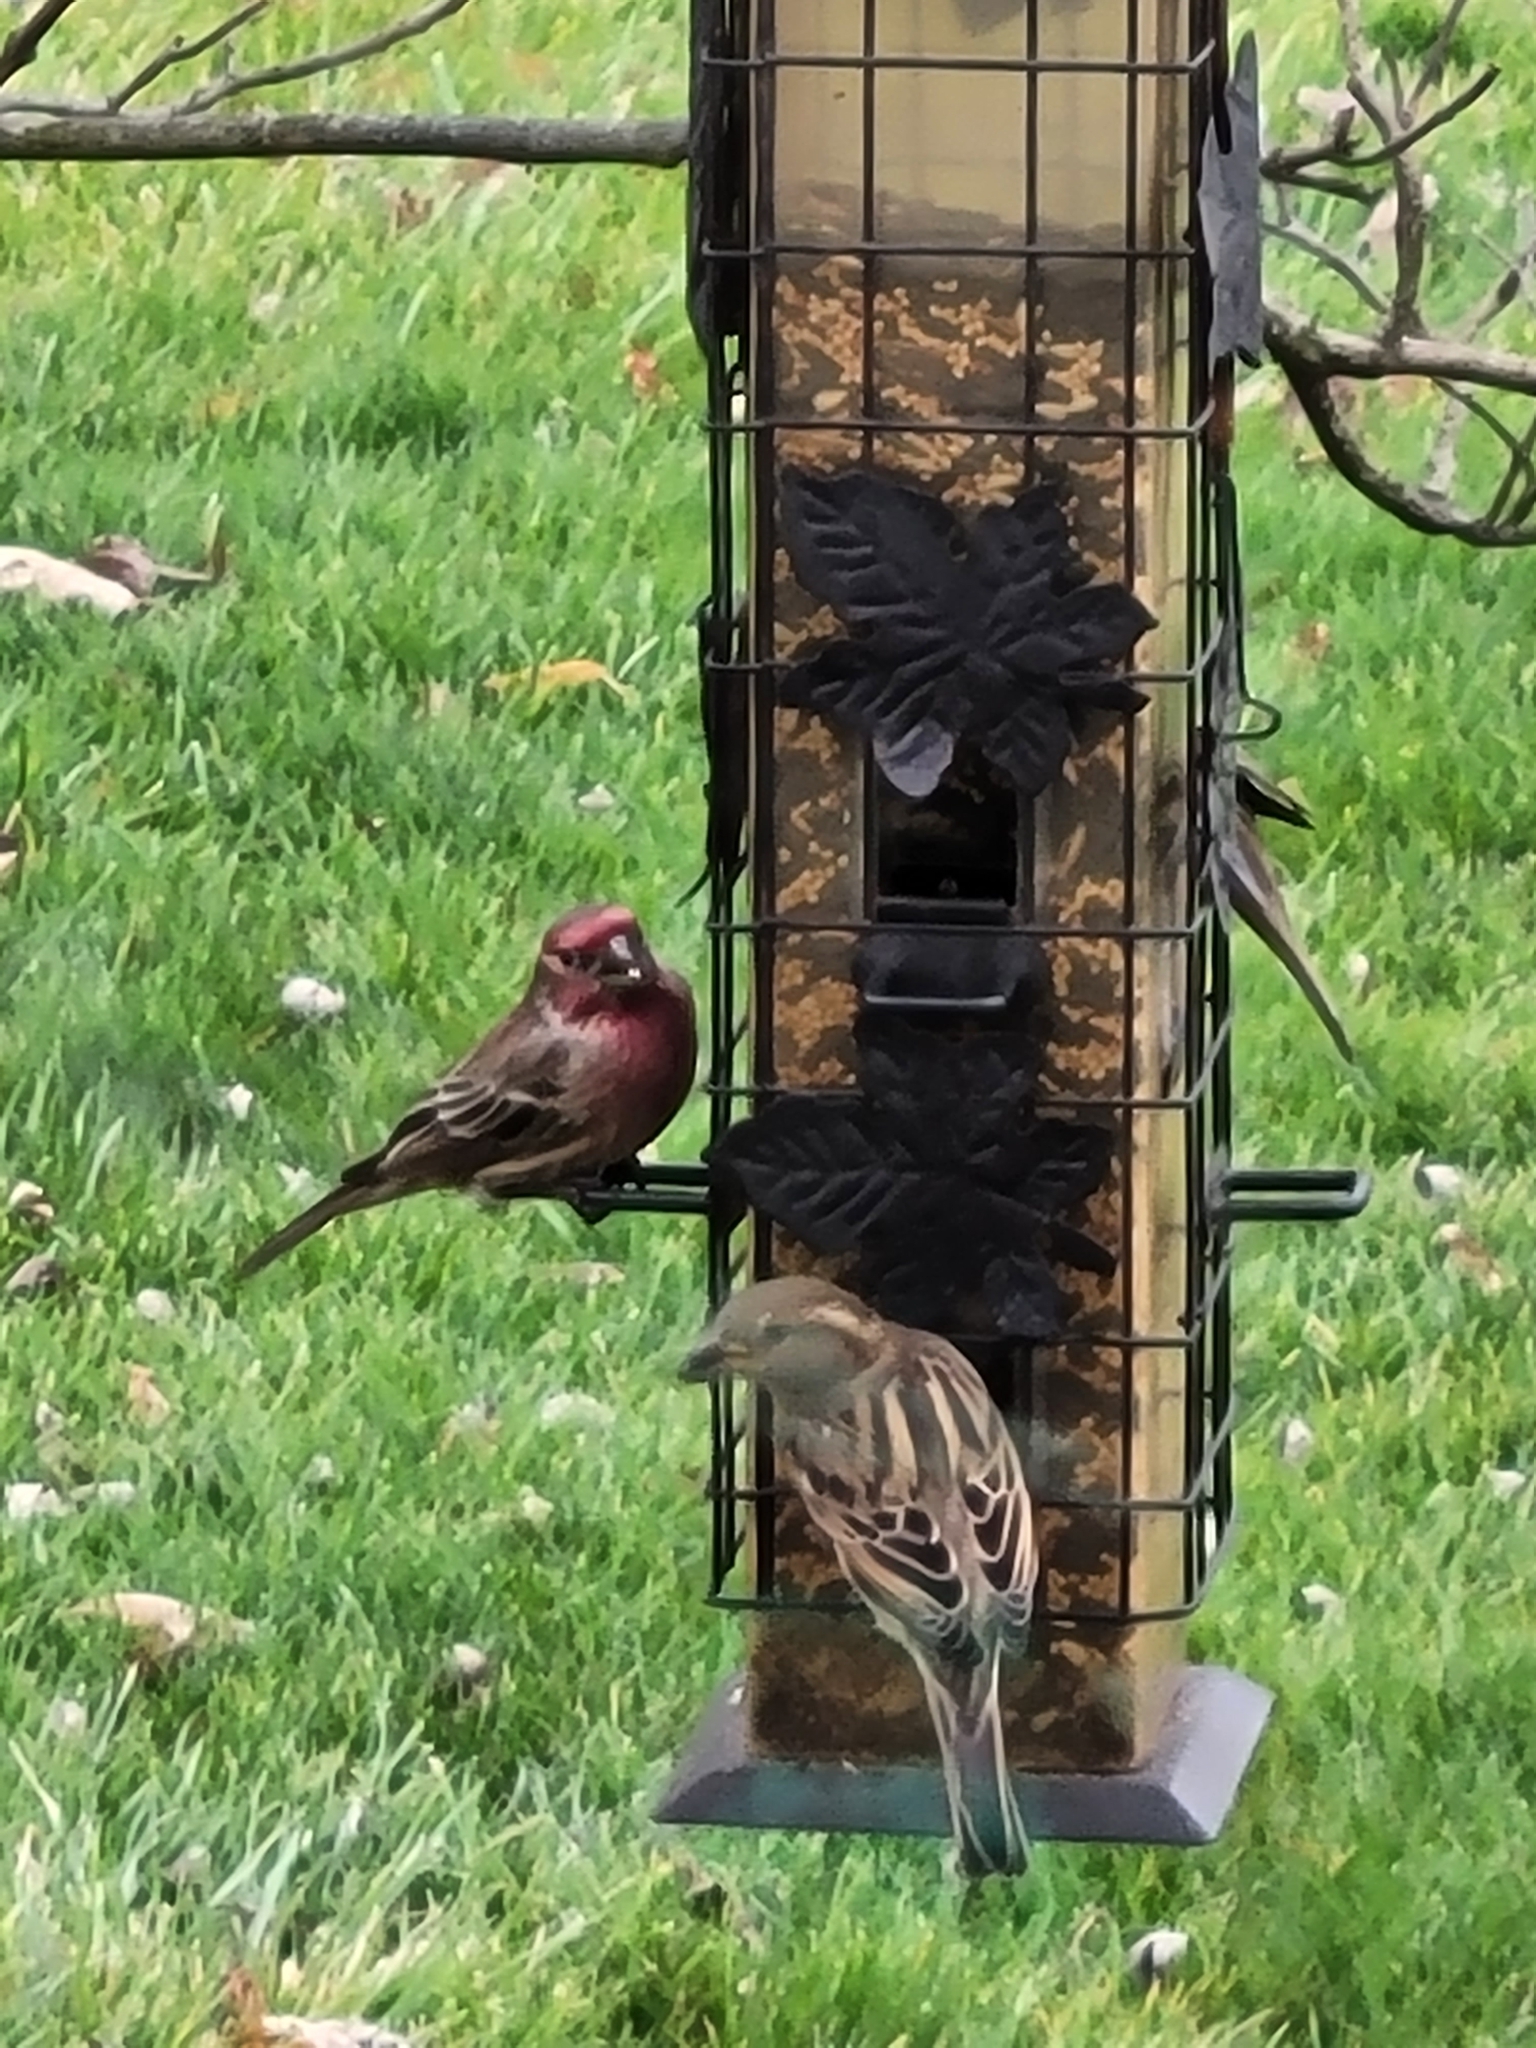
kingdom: Animalia
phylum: Chordata
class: Aves
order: Passeriformes
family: Fringillidae
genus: Haemorhous
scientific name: Haemorhous mexicanus
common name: House finch
